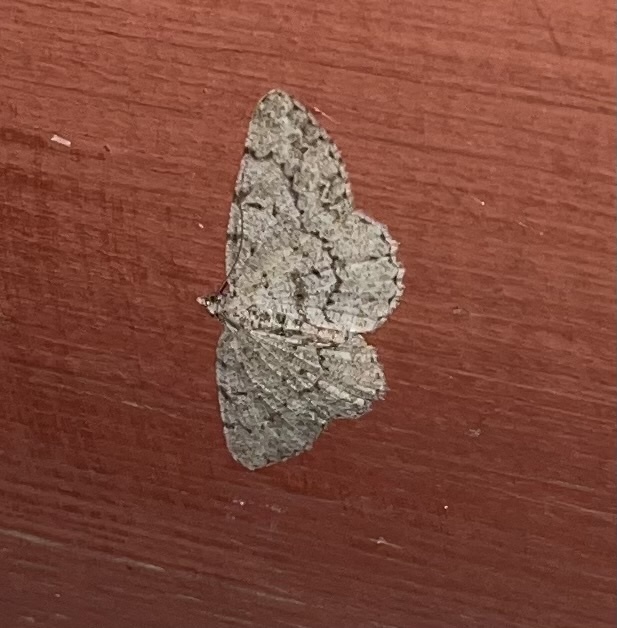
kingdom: Animalia
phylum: Arthropoda
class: Insecta
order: Lepidoptera
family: Geometridae
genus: Protoboarmia
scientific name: Protoboarmia porcelaria
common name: Porcelain gray
